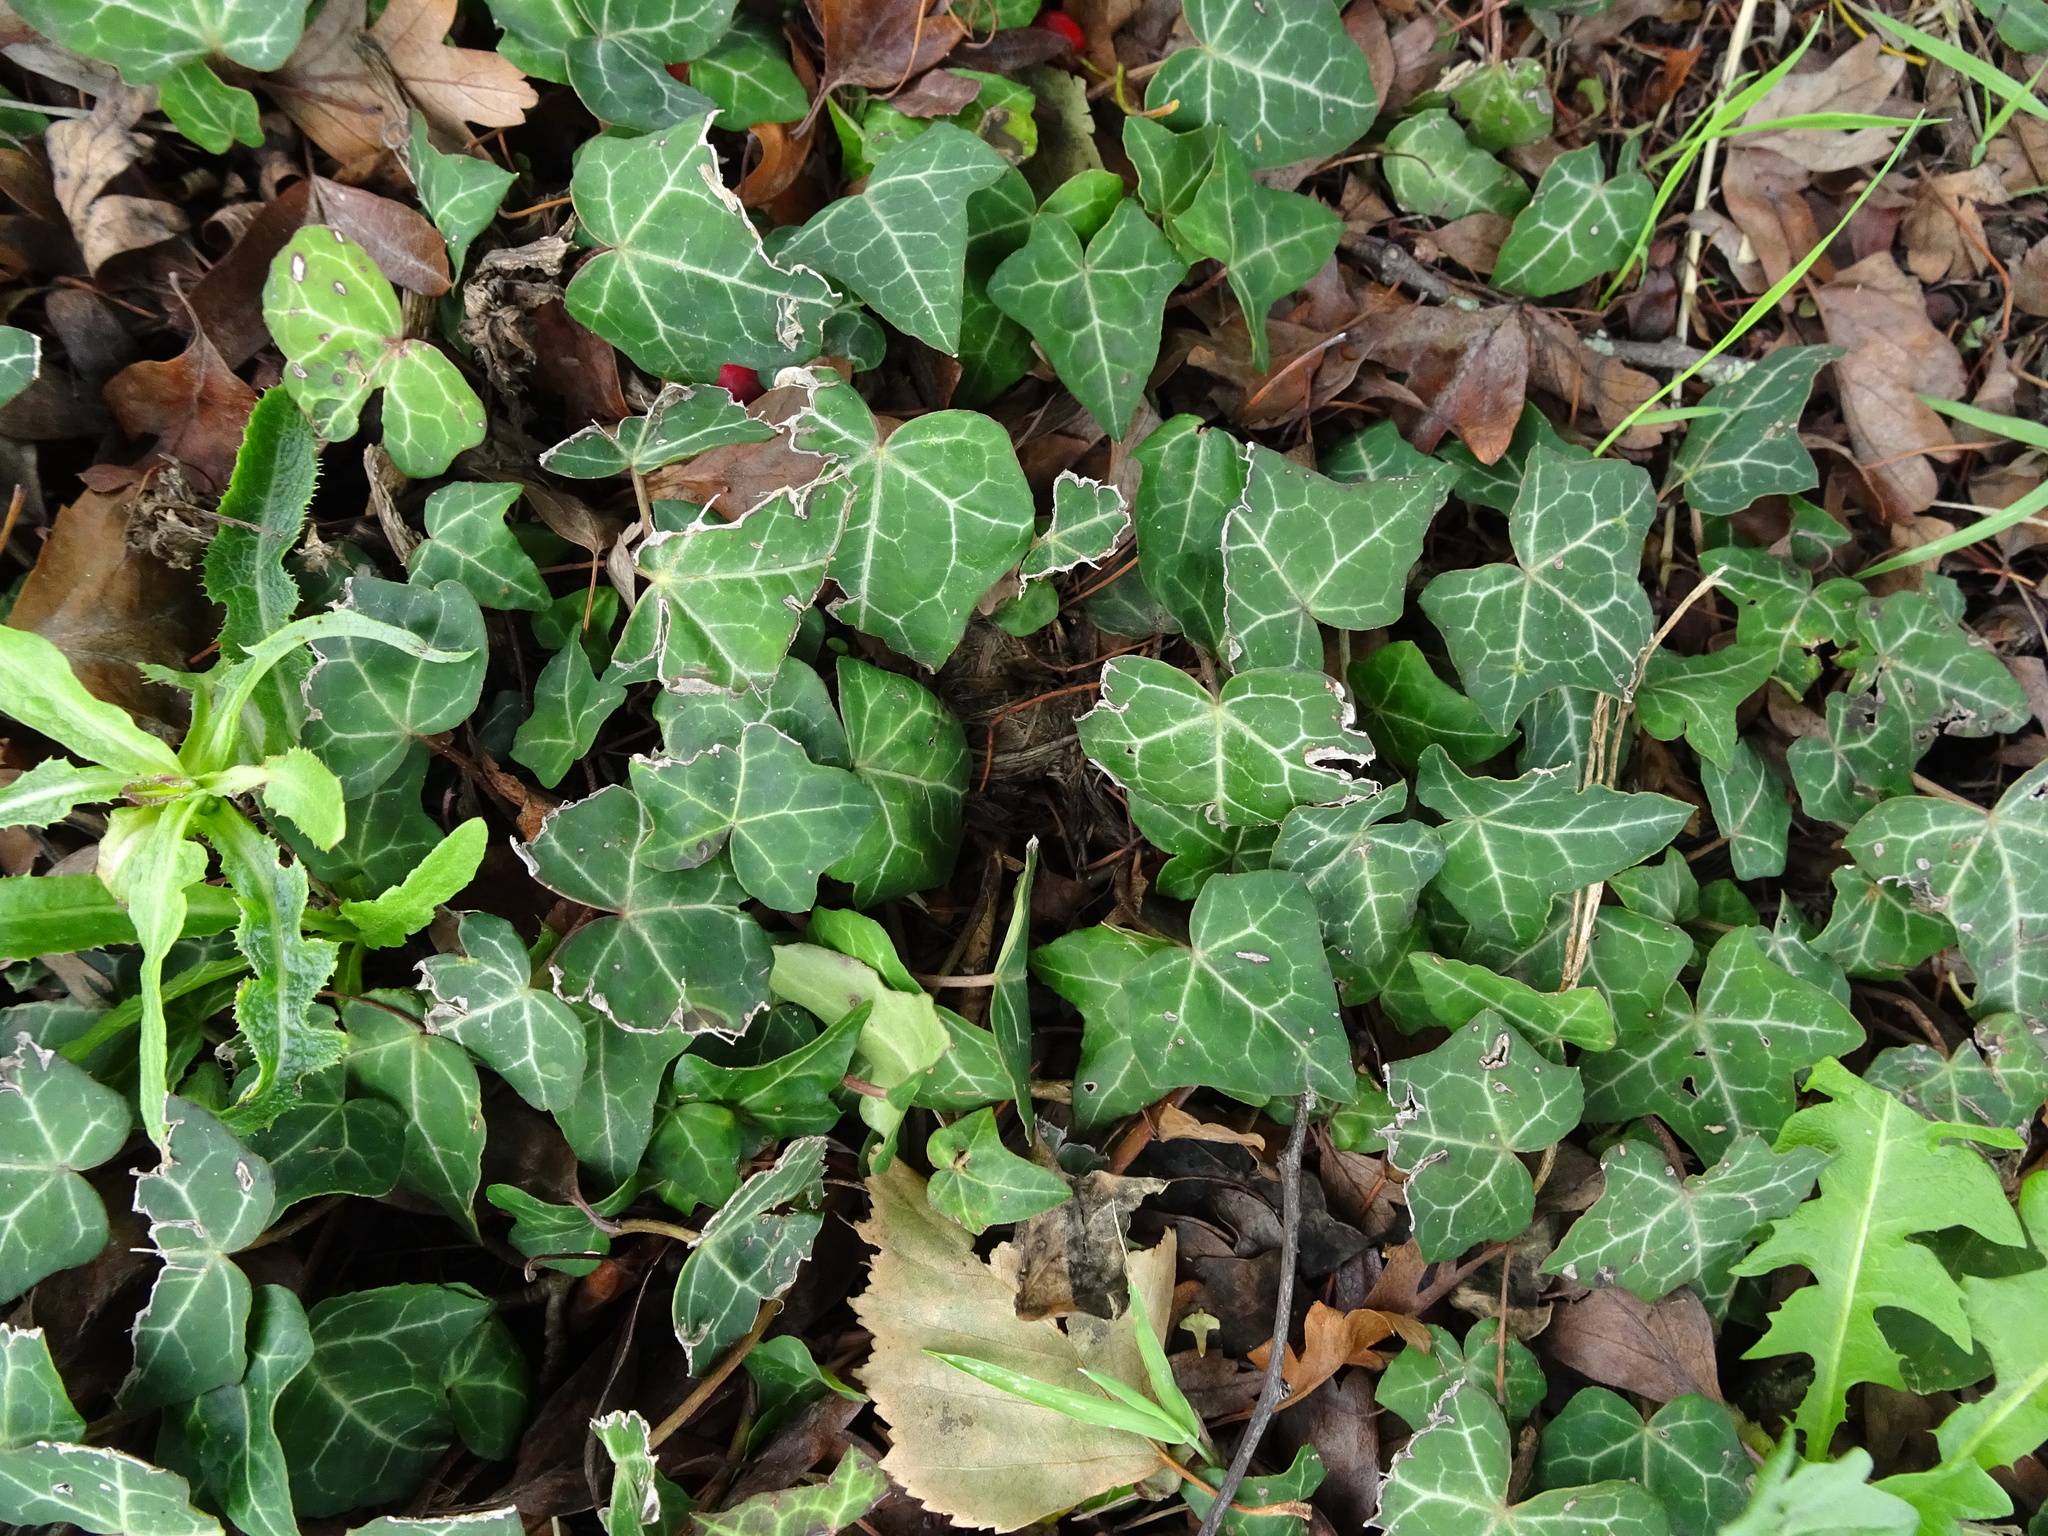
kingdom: Plantae
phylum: Tracheophyta
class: Magnoliopsida
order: Apiales
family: Araliaceae
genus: Hedera
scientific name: Hedera helix
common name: Ivy
